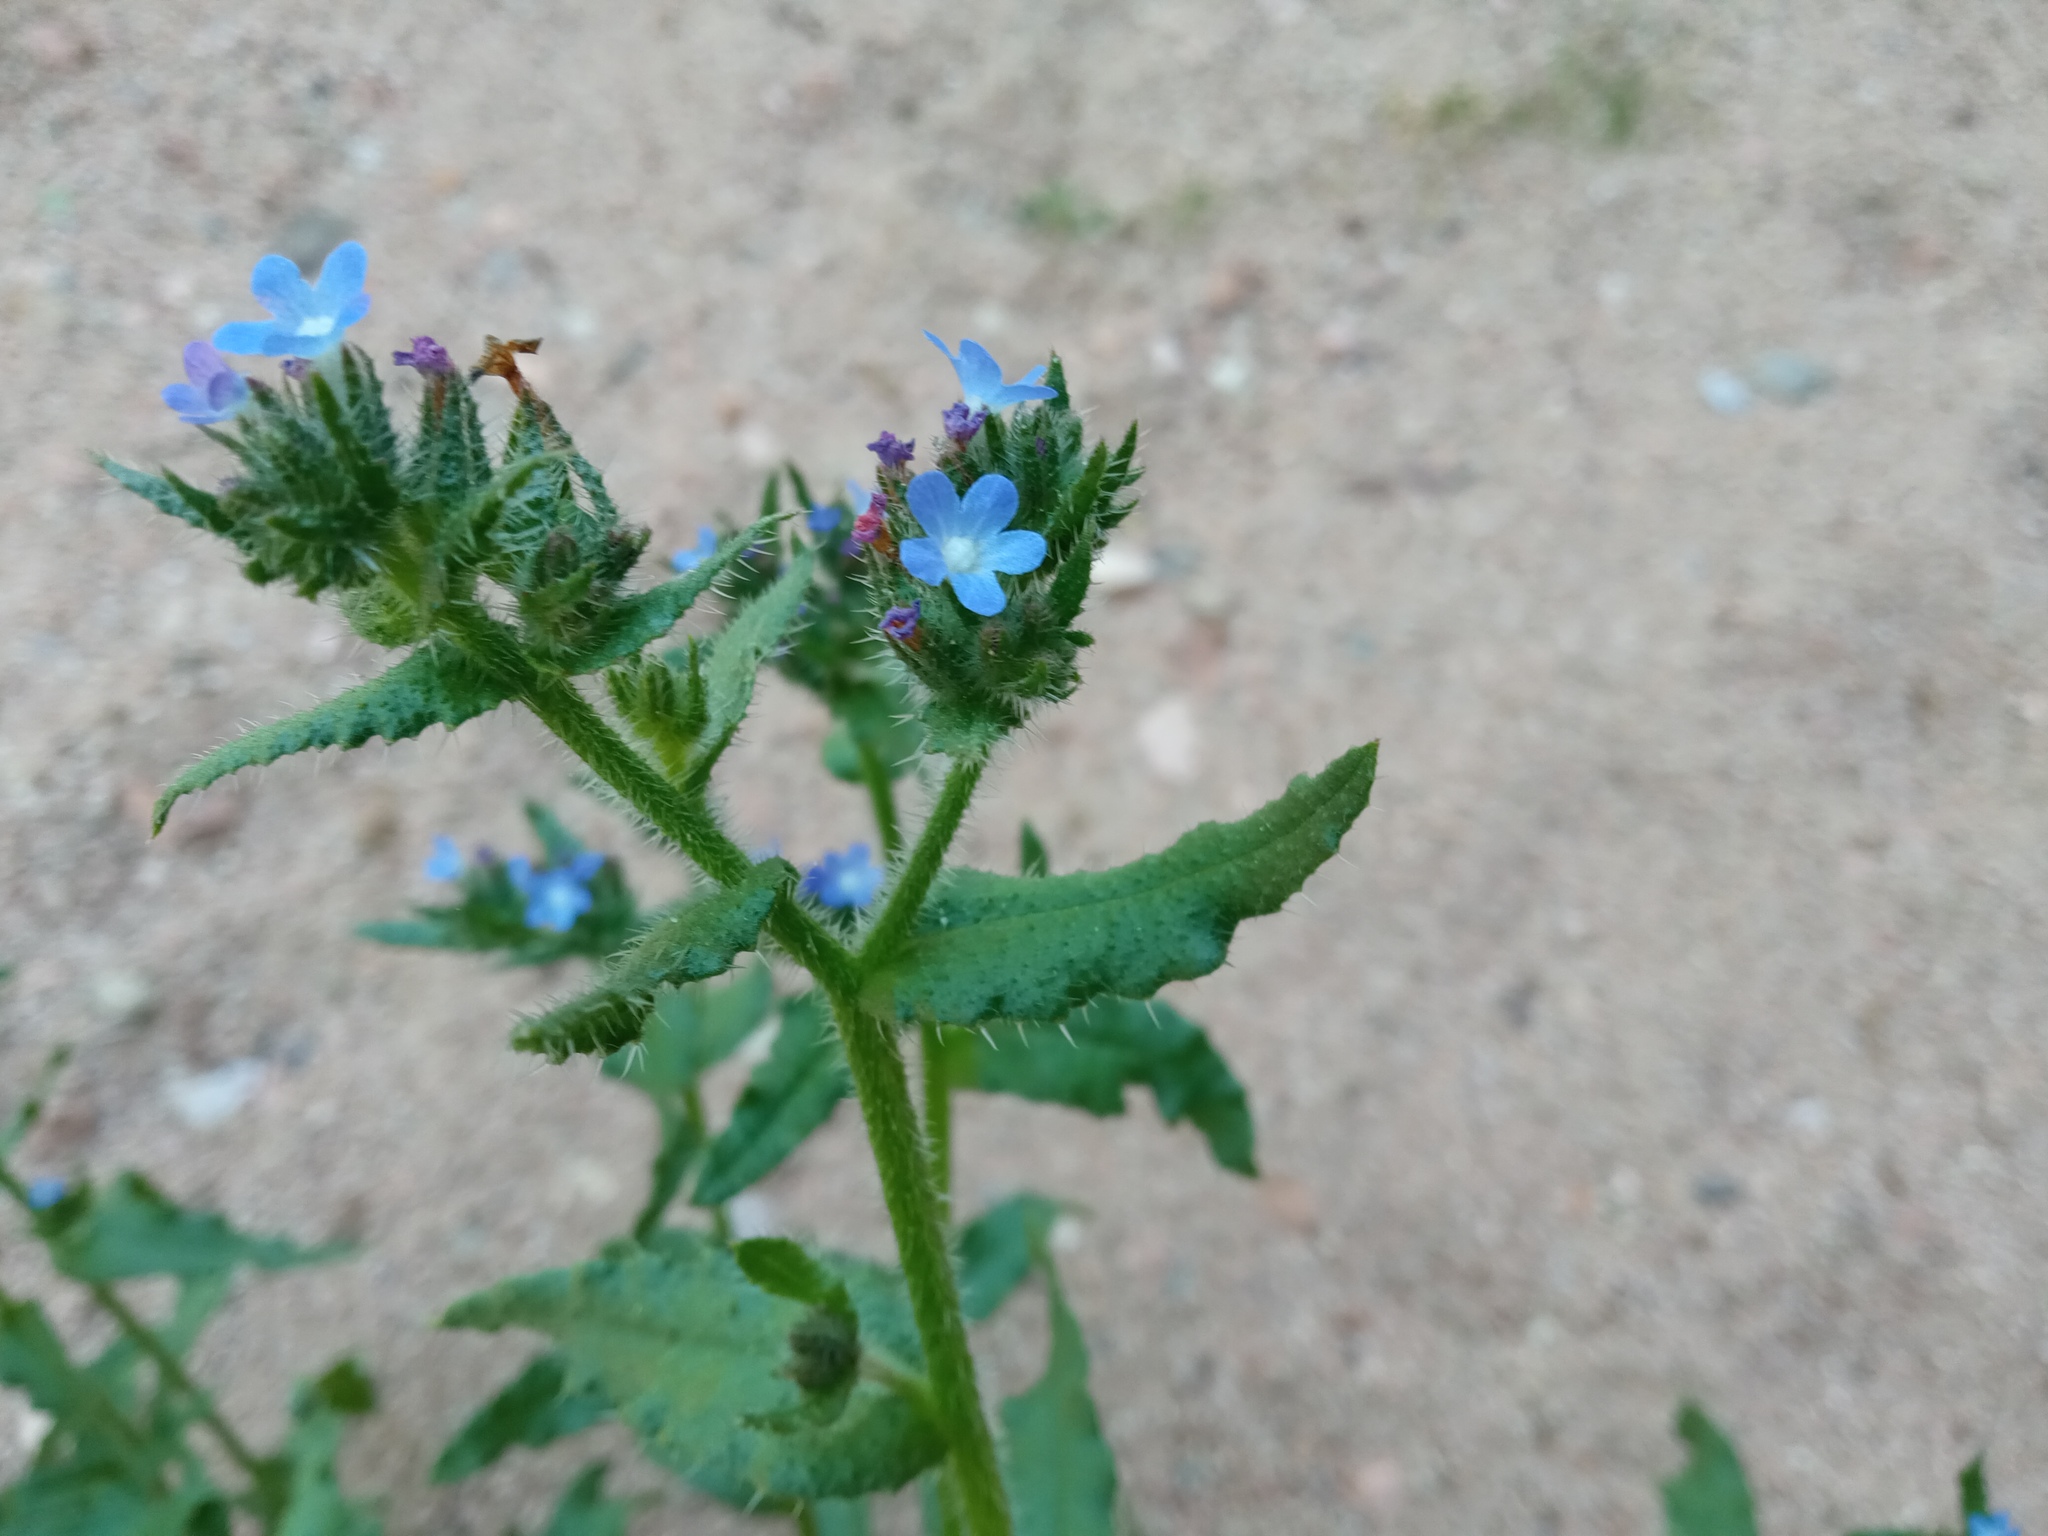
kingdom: Plantae
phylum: Tracheophyta
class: Magnoliopsida
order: Boraginales
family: Boraginaceae
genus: Lycopsis
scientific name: Lycopsis arvensis
